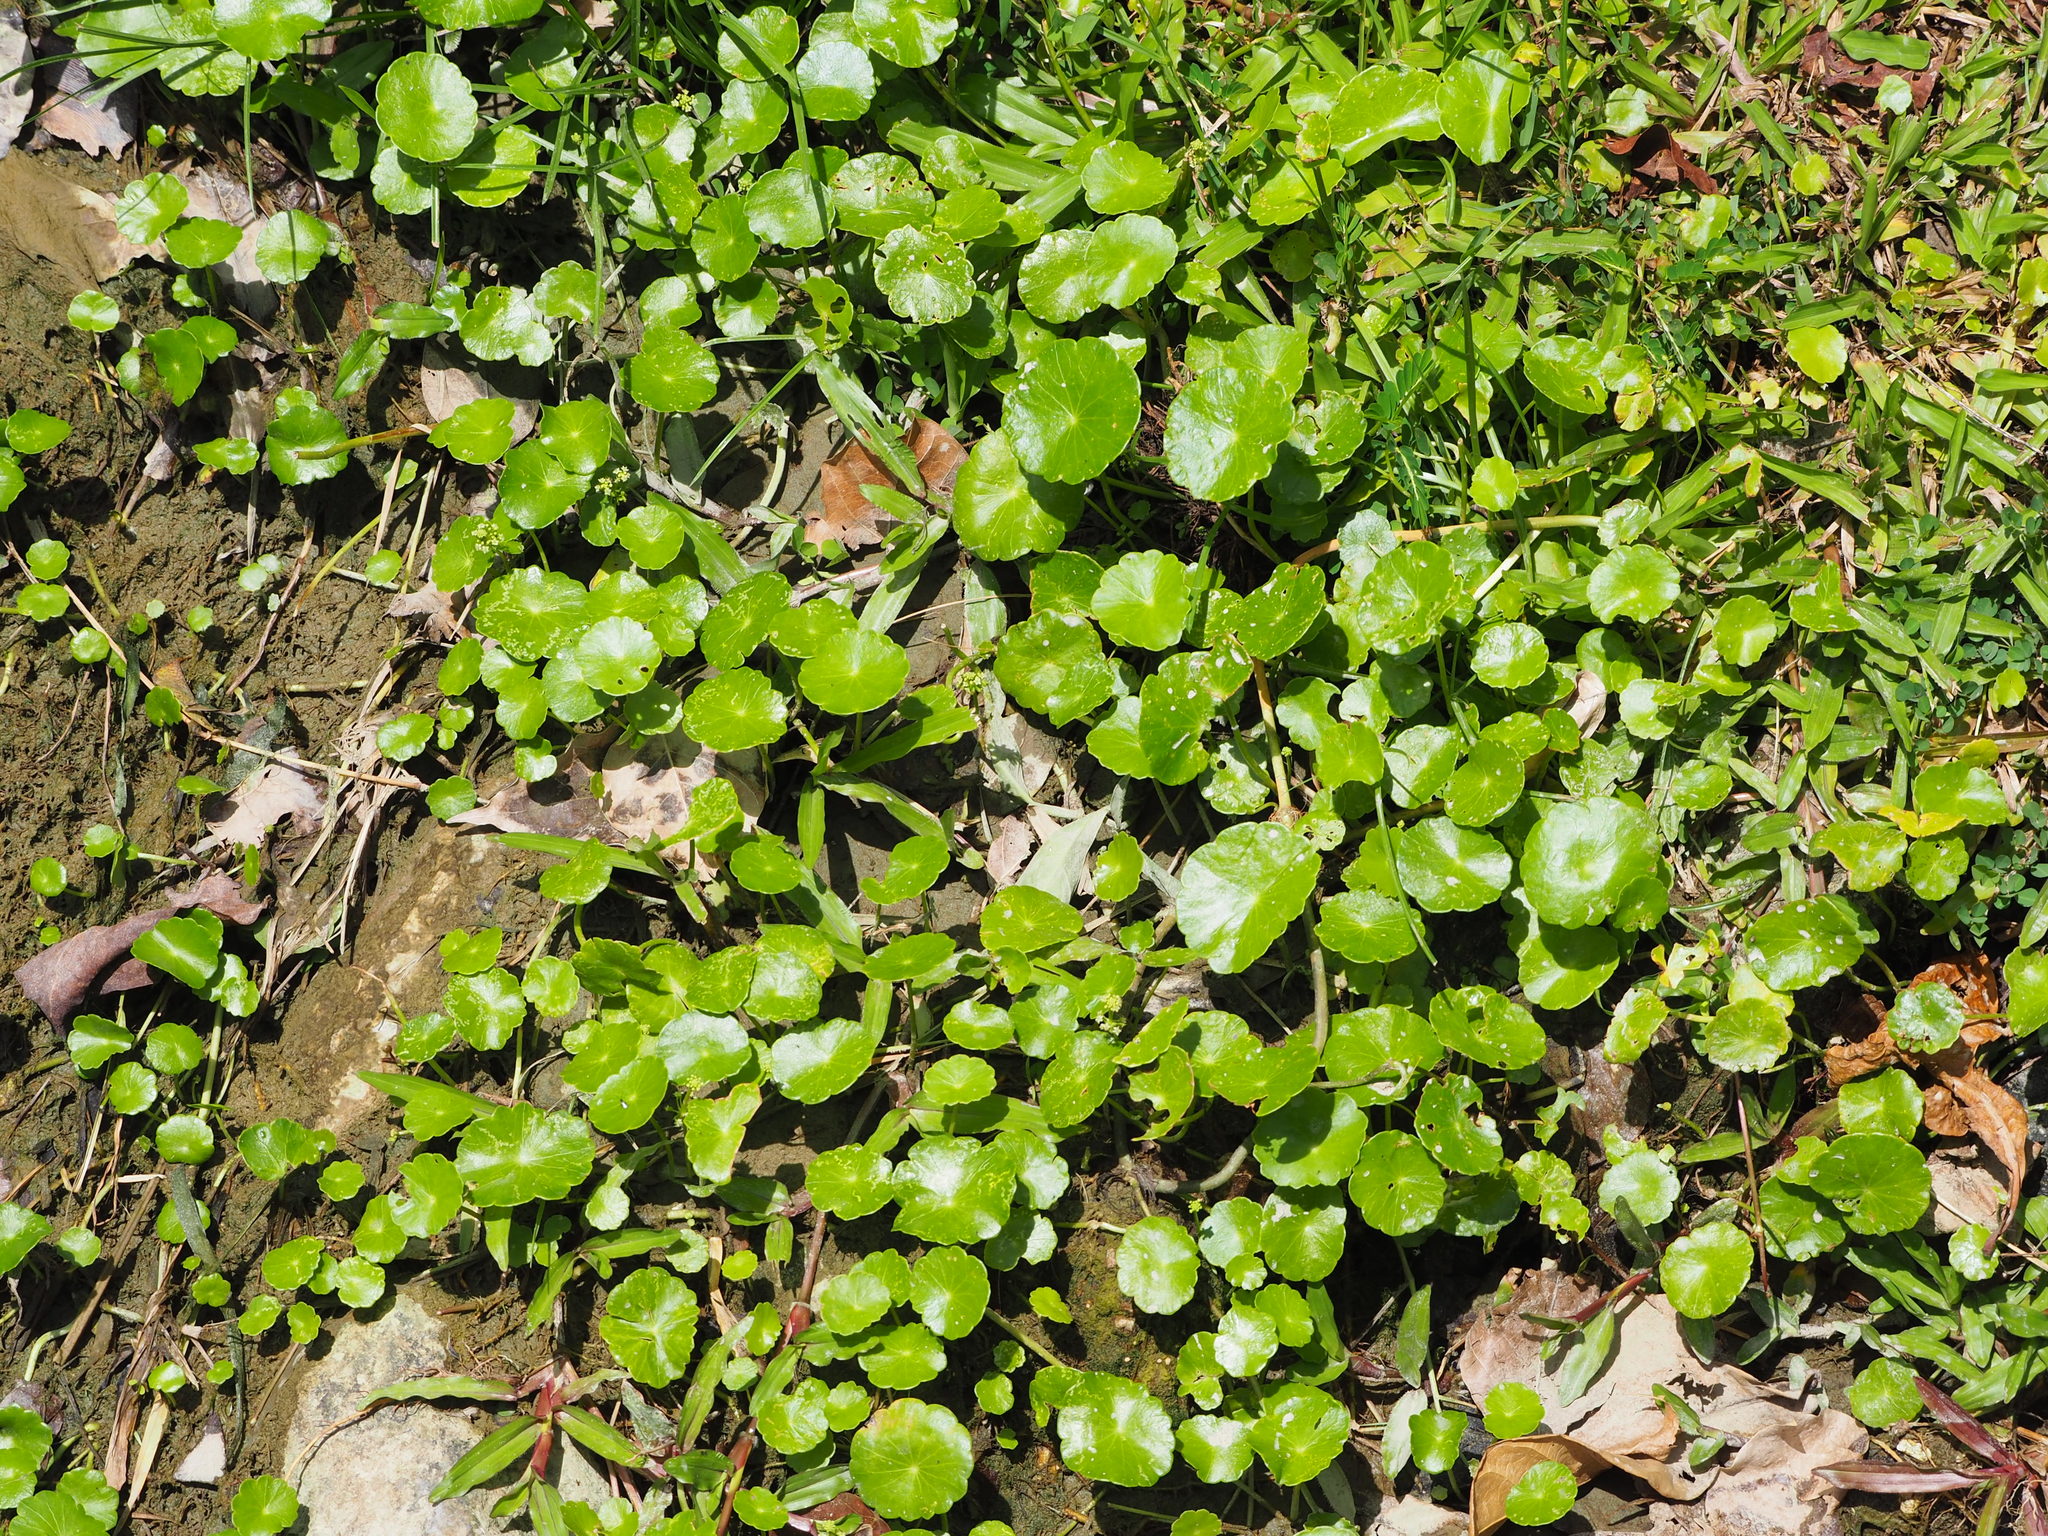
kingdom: Plantae
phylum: Tracheophyta
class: Magnoliopsida
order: Apiales
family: Araliaceae
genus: Hydrocotyle
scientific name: Hydrocotyle verticillata
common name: Whorled marshpennywort
